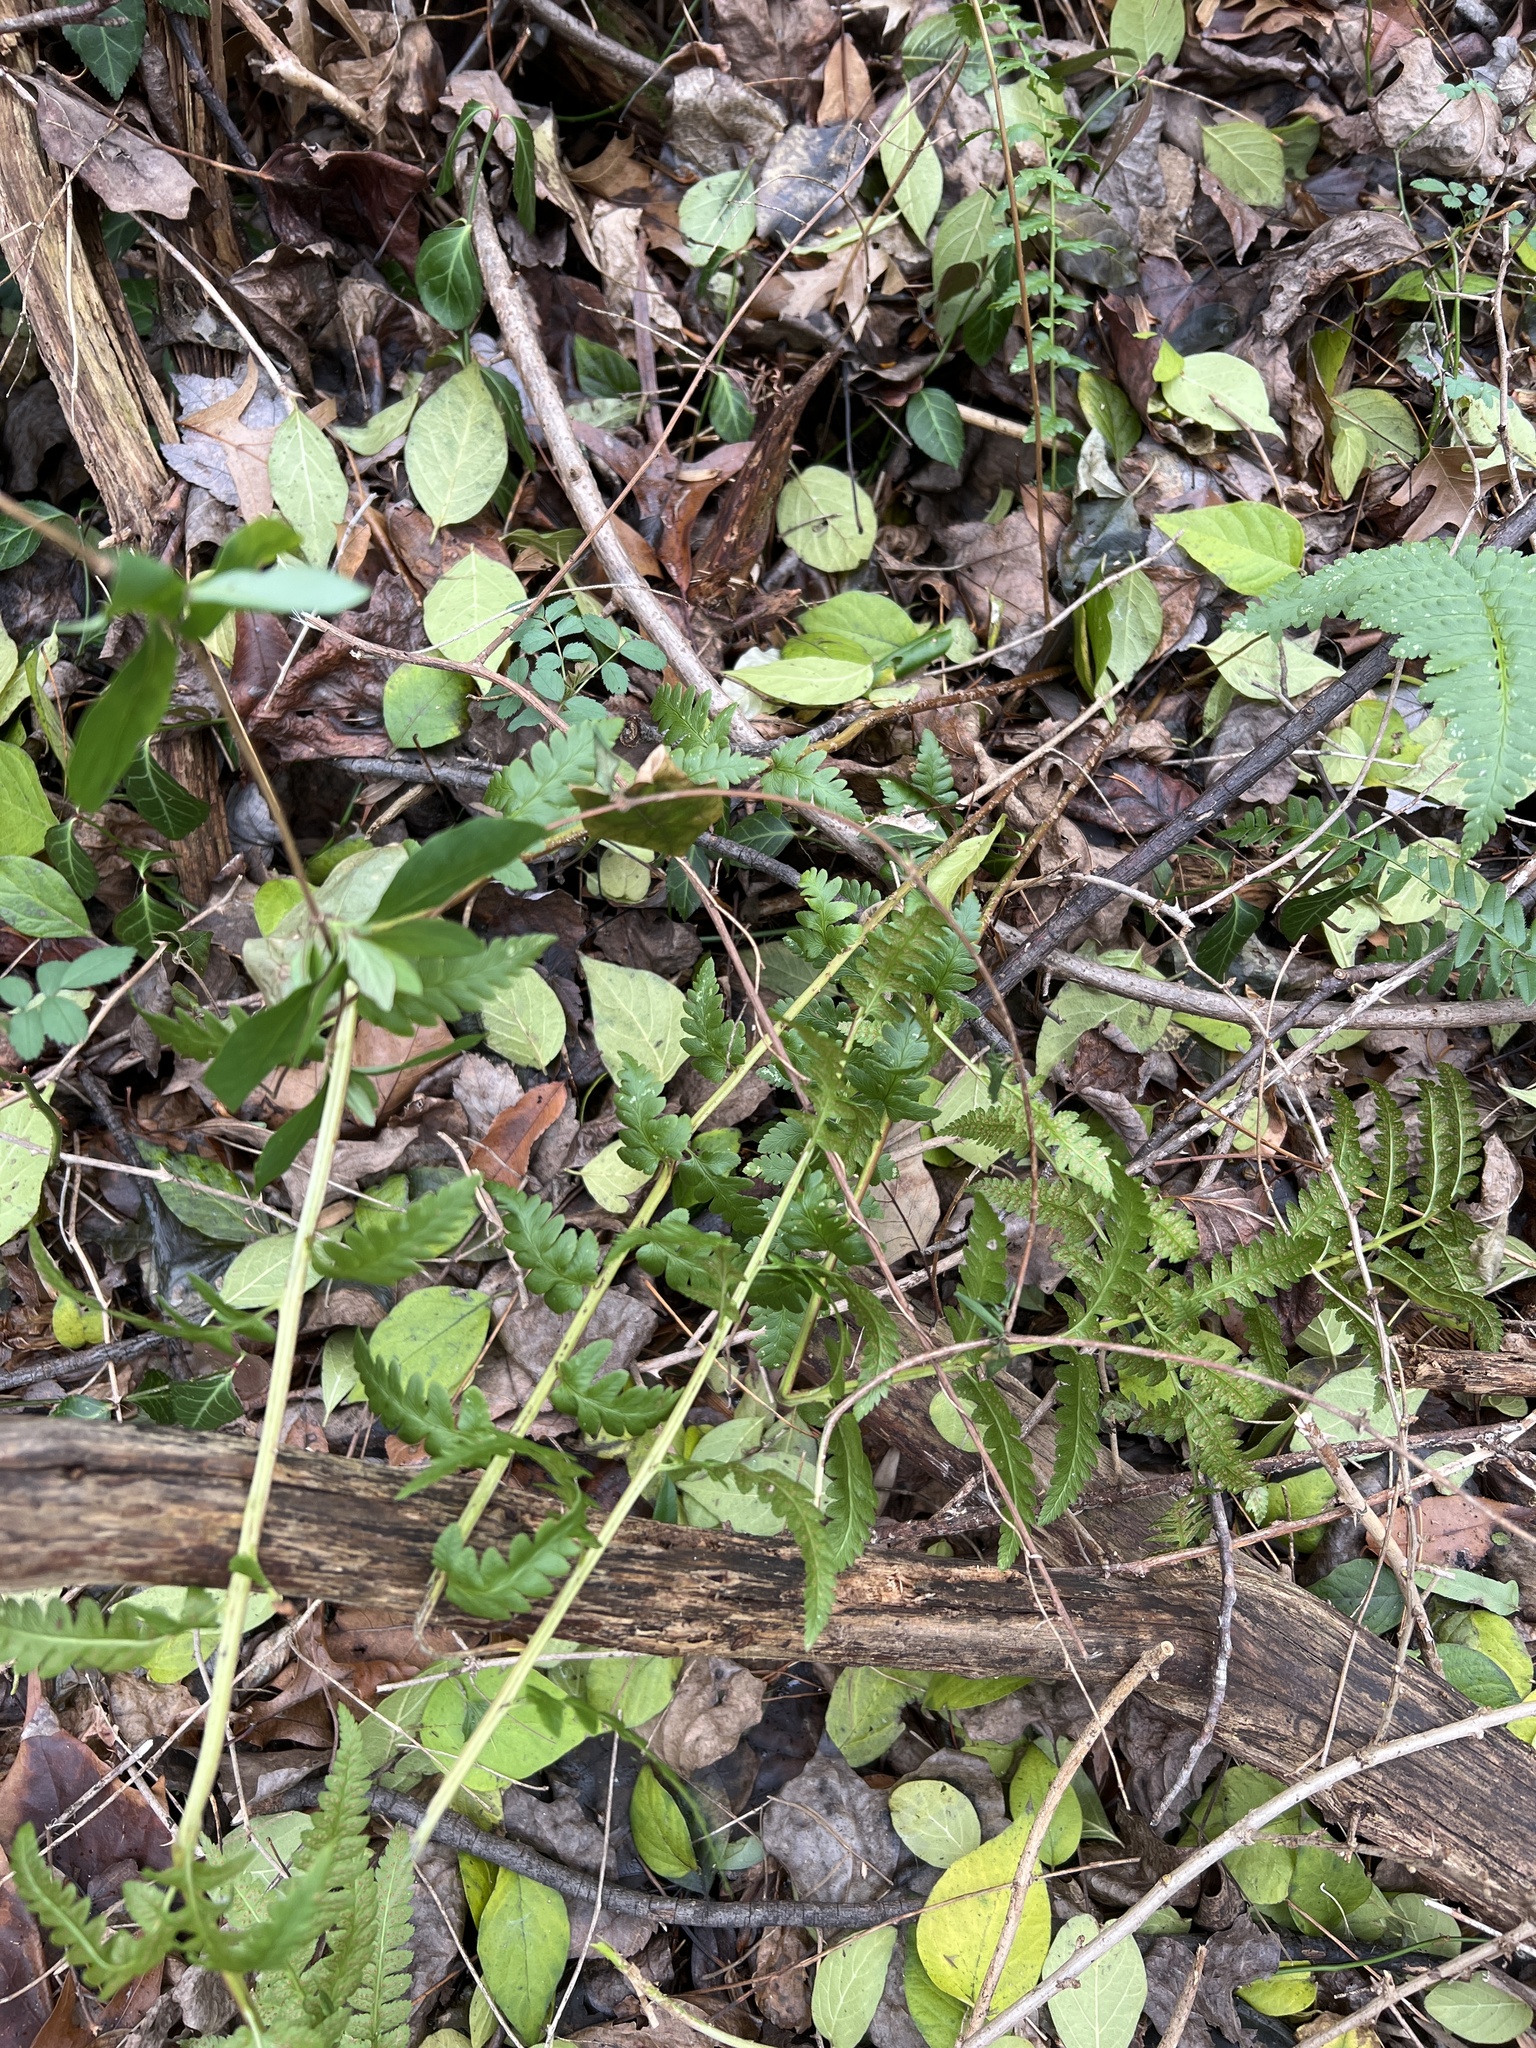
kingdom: Plantae
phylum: Tracheophyta
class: Polypodiopsida
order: Polypodiales
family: Dryopteridaceae
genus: Dryopteris
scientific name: Dryopteris cristata
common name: Crested wood fern
